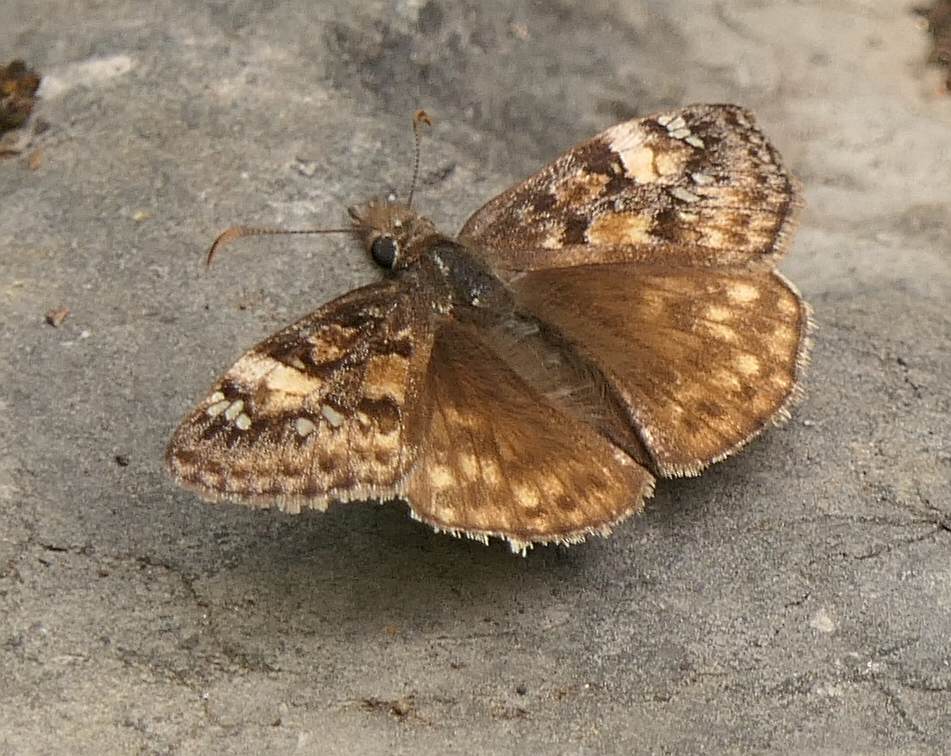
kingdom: Animalia
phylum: Arthropoda
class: Insecta
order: Lepidoptera
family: Hesperiidae
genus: Erynnis
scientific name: Erynnis juvenalis
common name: Juvenal's duskywing
